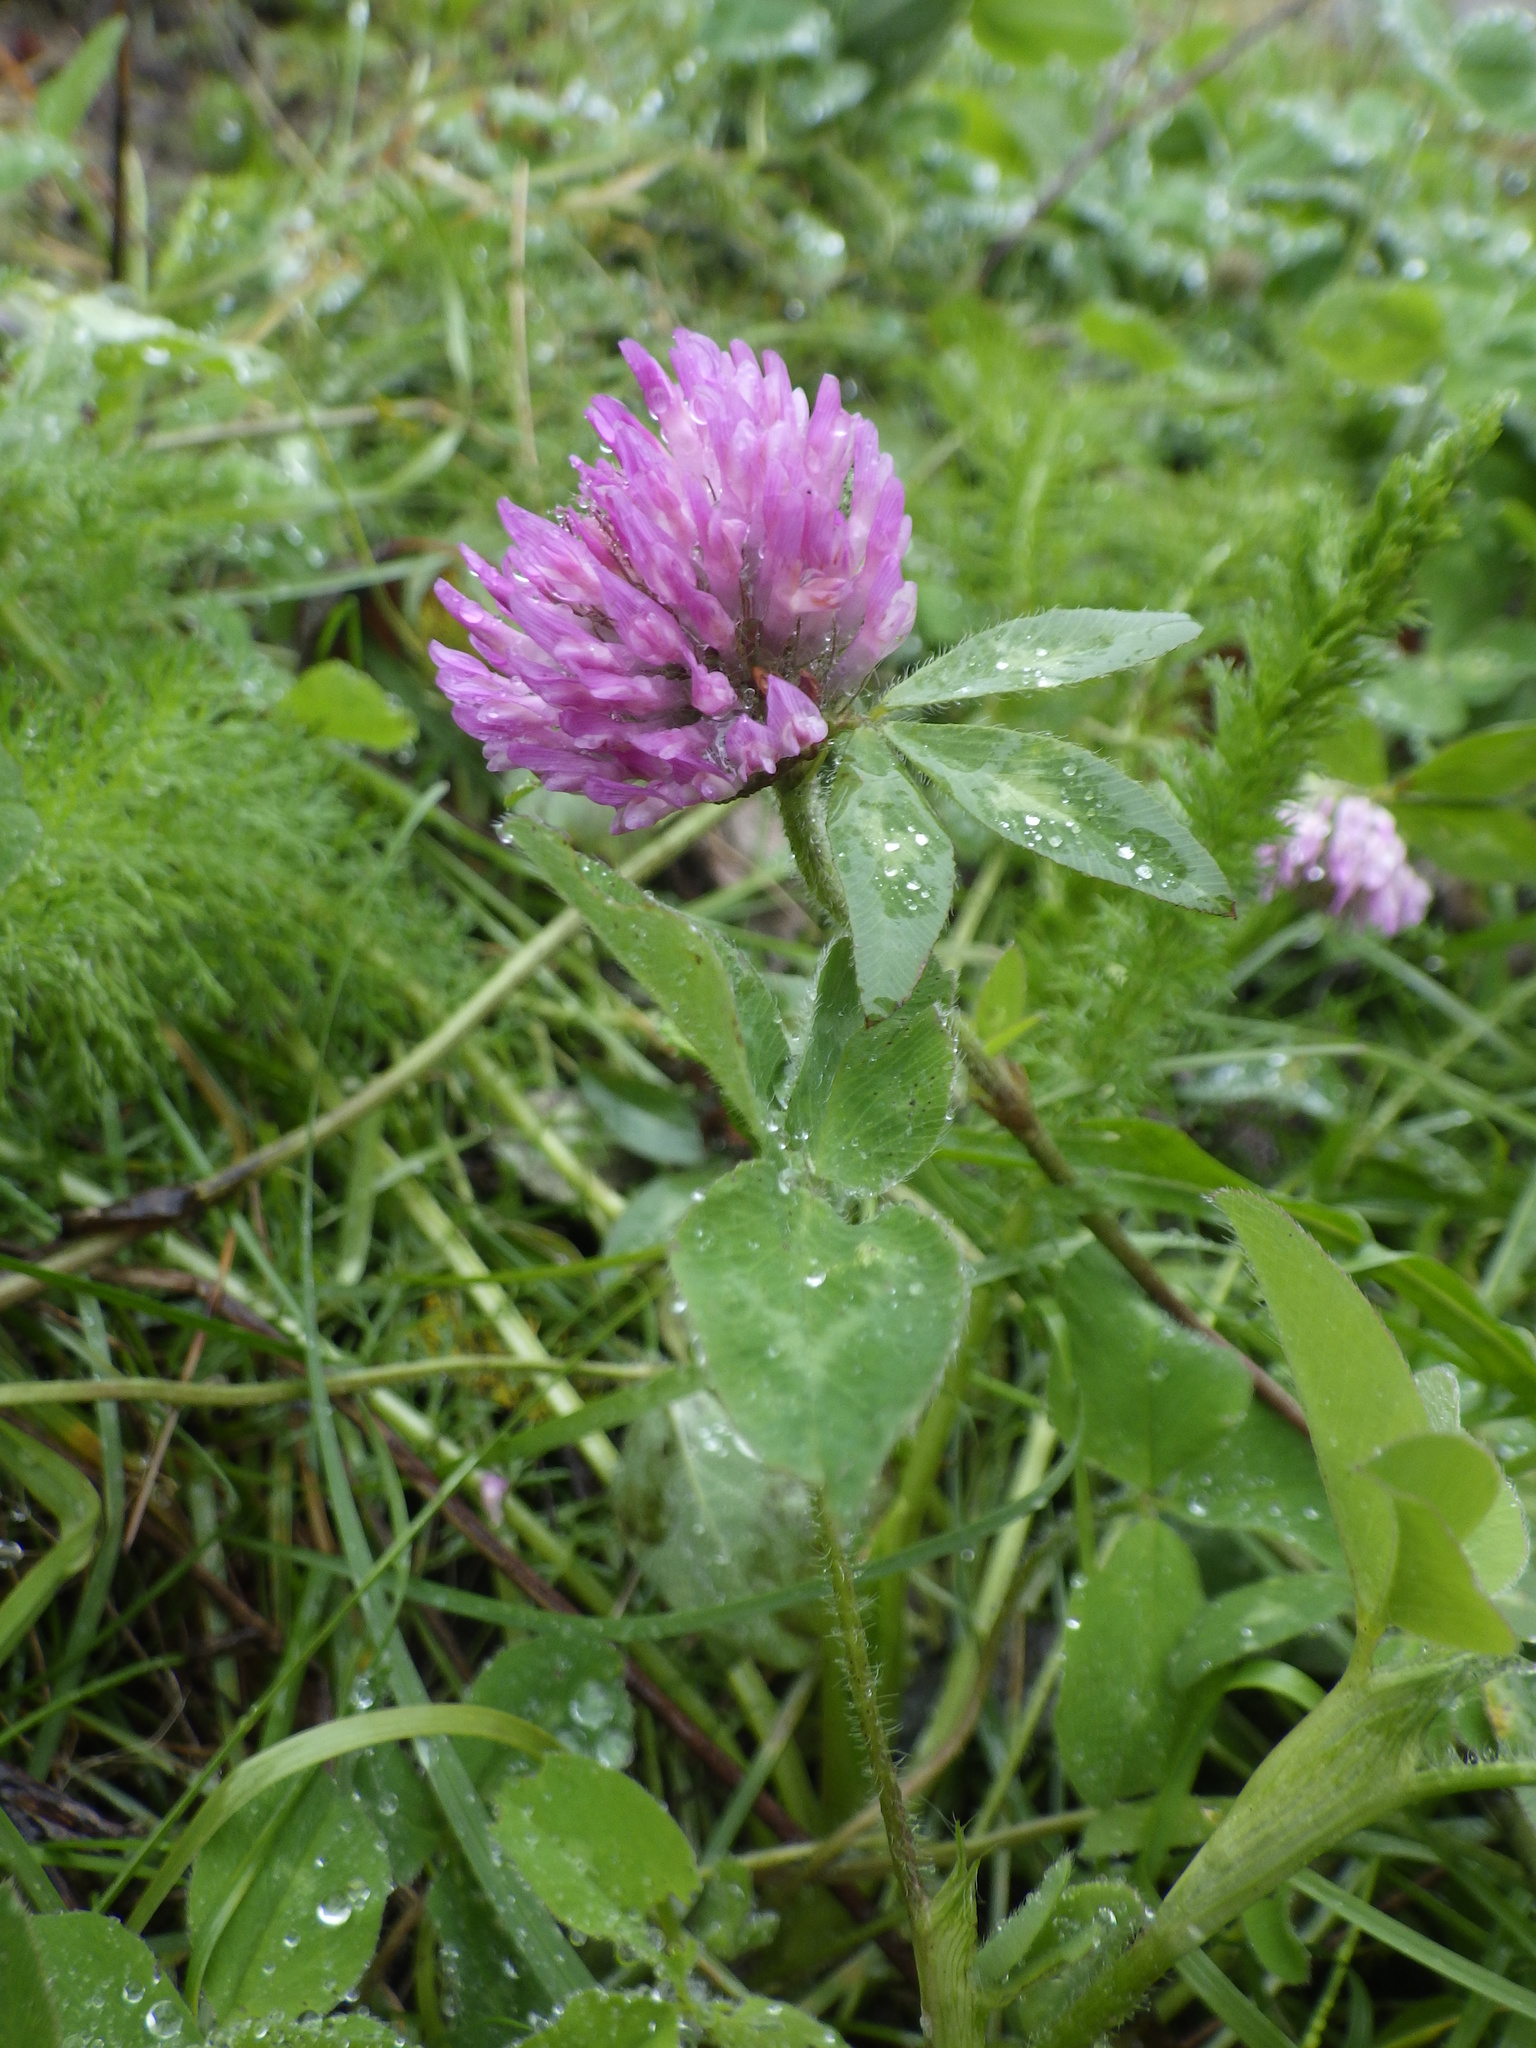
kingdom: Plantae
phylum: Tracheophyta
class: Magnoliopsida
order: Fabales
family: Fabaceae
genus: Trifolium
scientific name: Trifolium pratense
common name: Red clover
